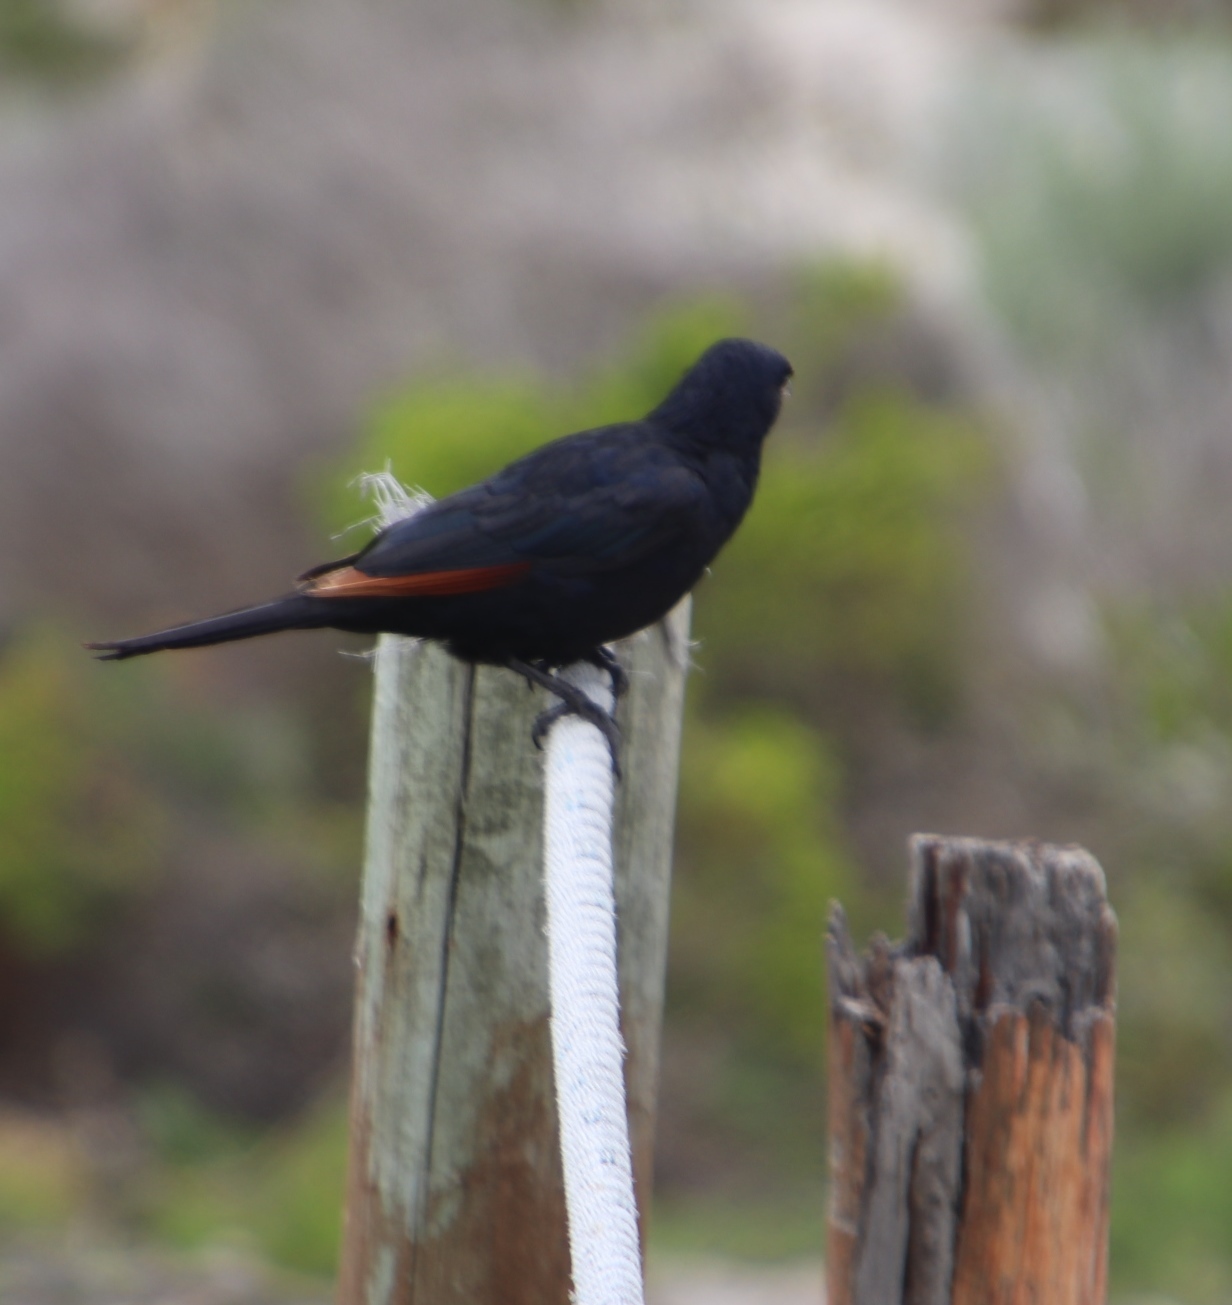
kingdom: Animalia
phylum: Chordata
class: Aves
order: Passeriformes
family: Sturnidae
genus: Onychognathus
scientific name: Onychognathus morio
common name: Red-winged starling
